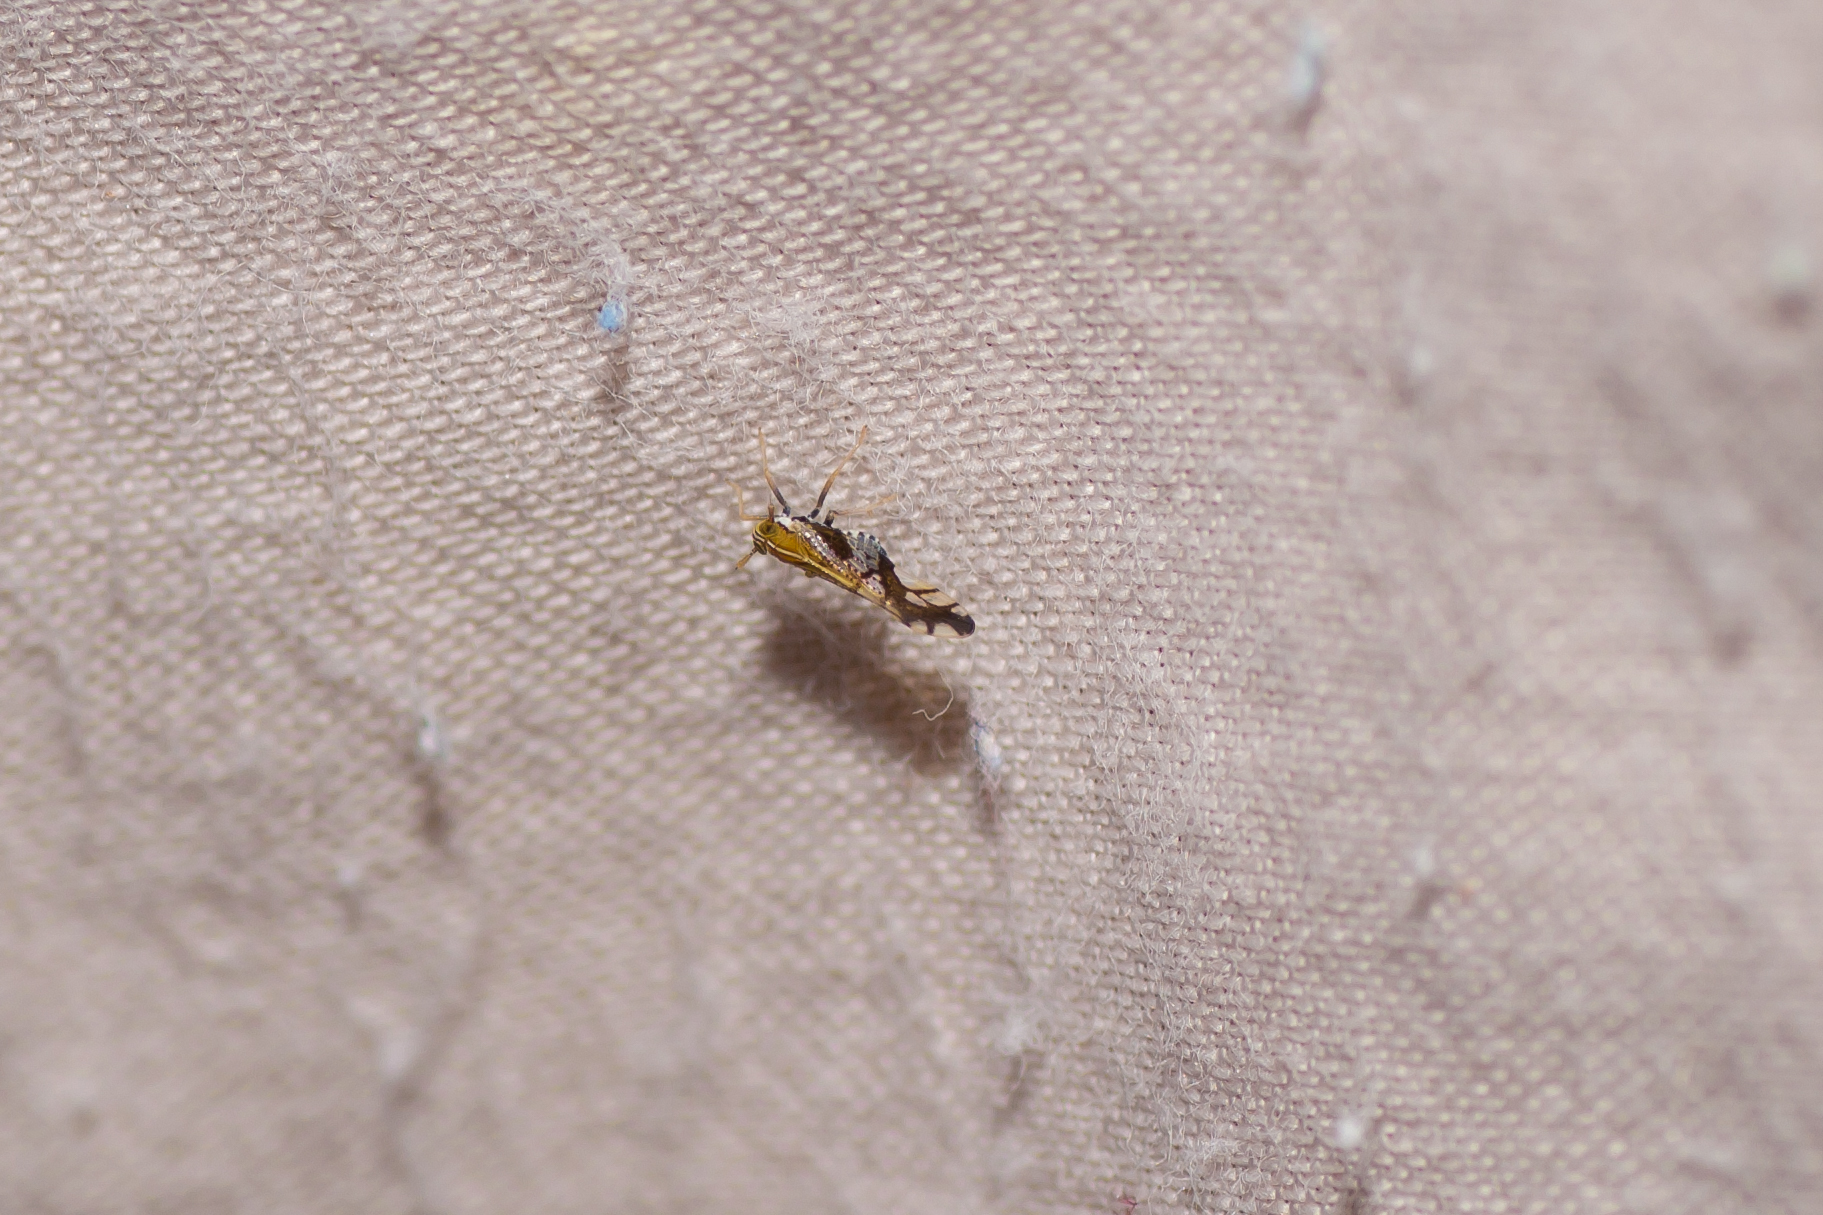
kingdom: Animalia
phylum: Arthropoda
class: Insecta
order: Hemiptera
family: Delphacidae
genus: Liburniella
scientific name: Liburniella ornata
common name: Ornate planthopper
